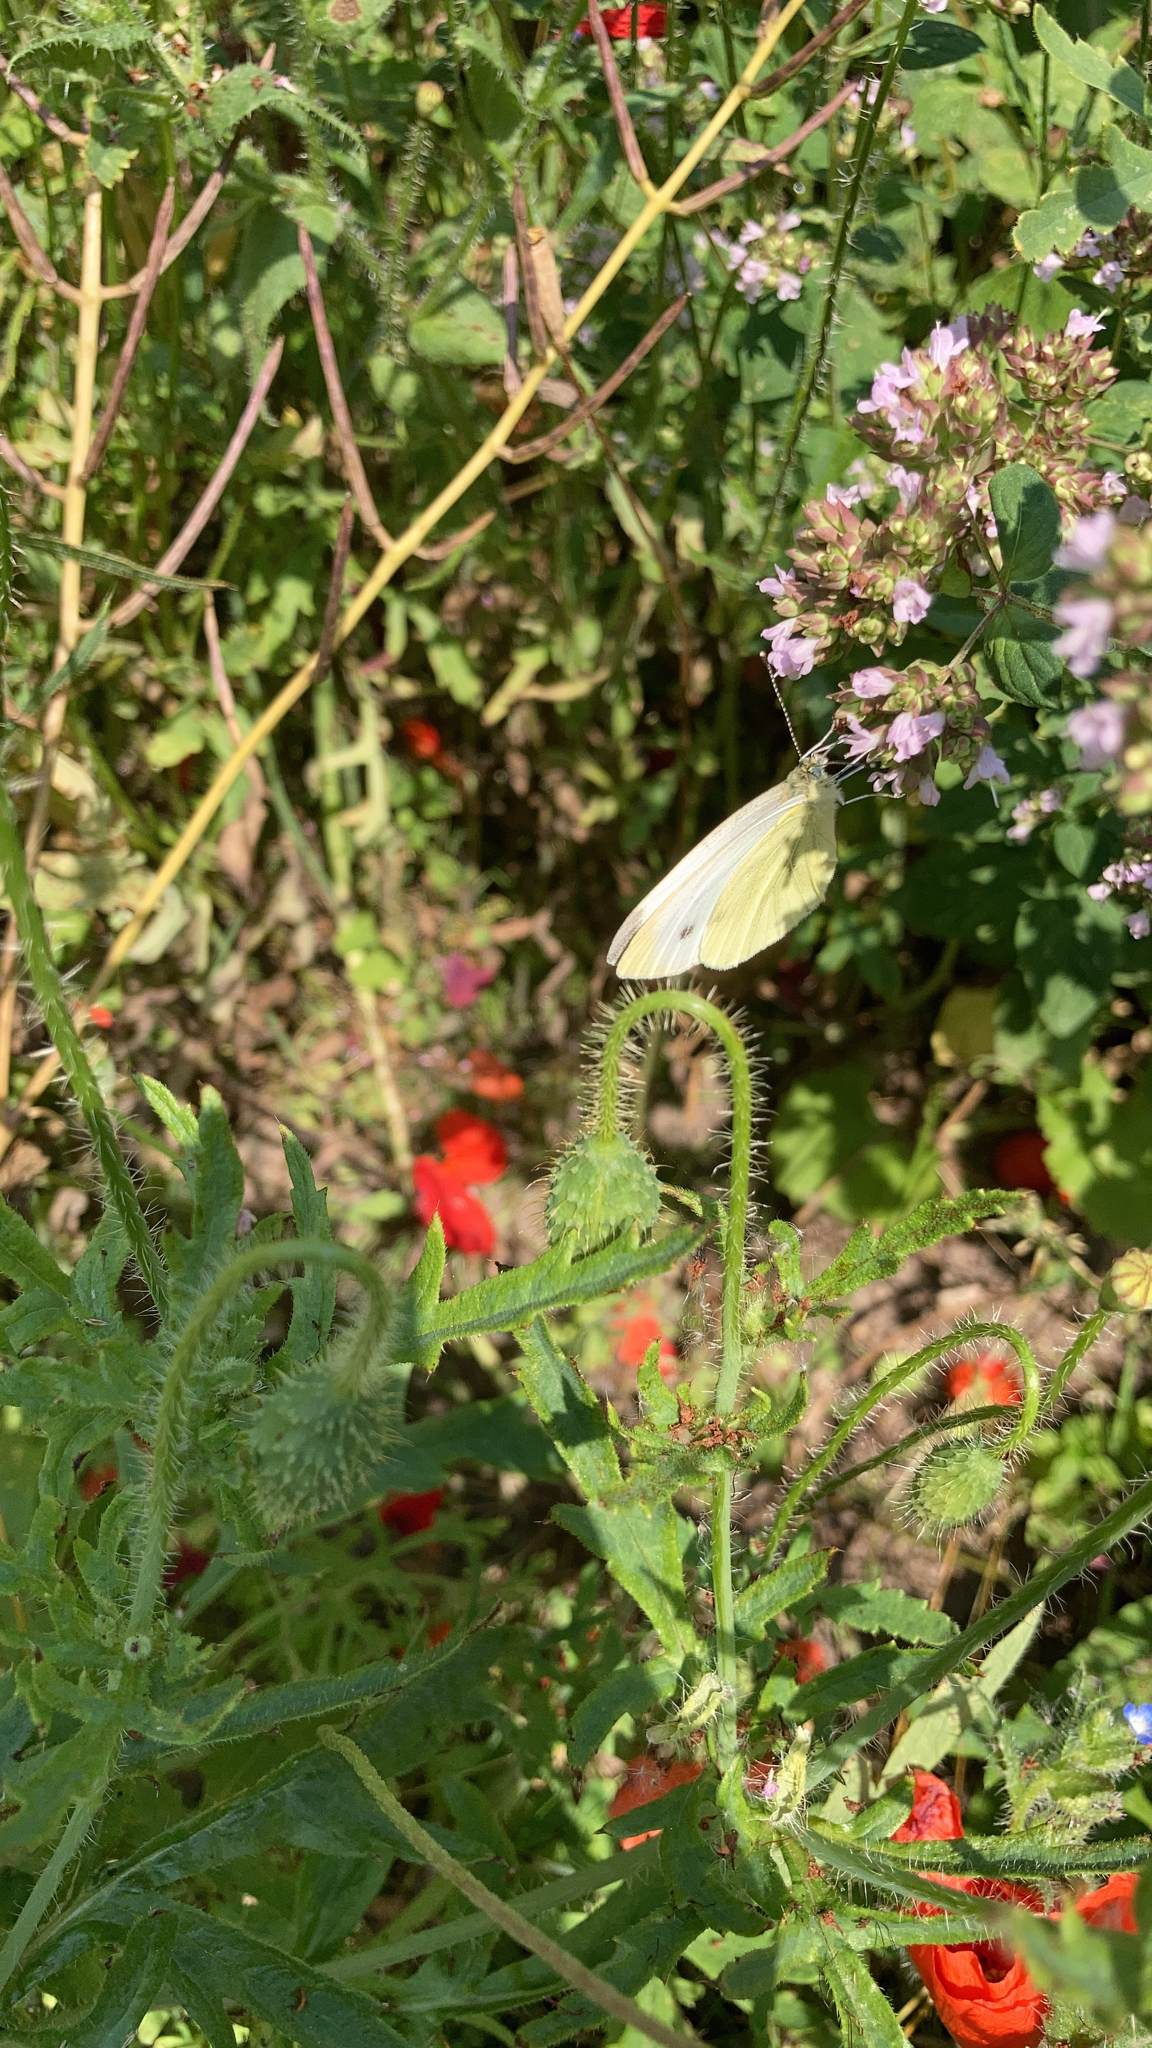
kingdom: Animalia
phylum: Arthropoda
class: Insecta
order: Lepidoptera
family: Pieridae
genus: Pieris
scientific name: Pieris rapae
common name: Small white
